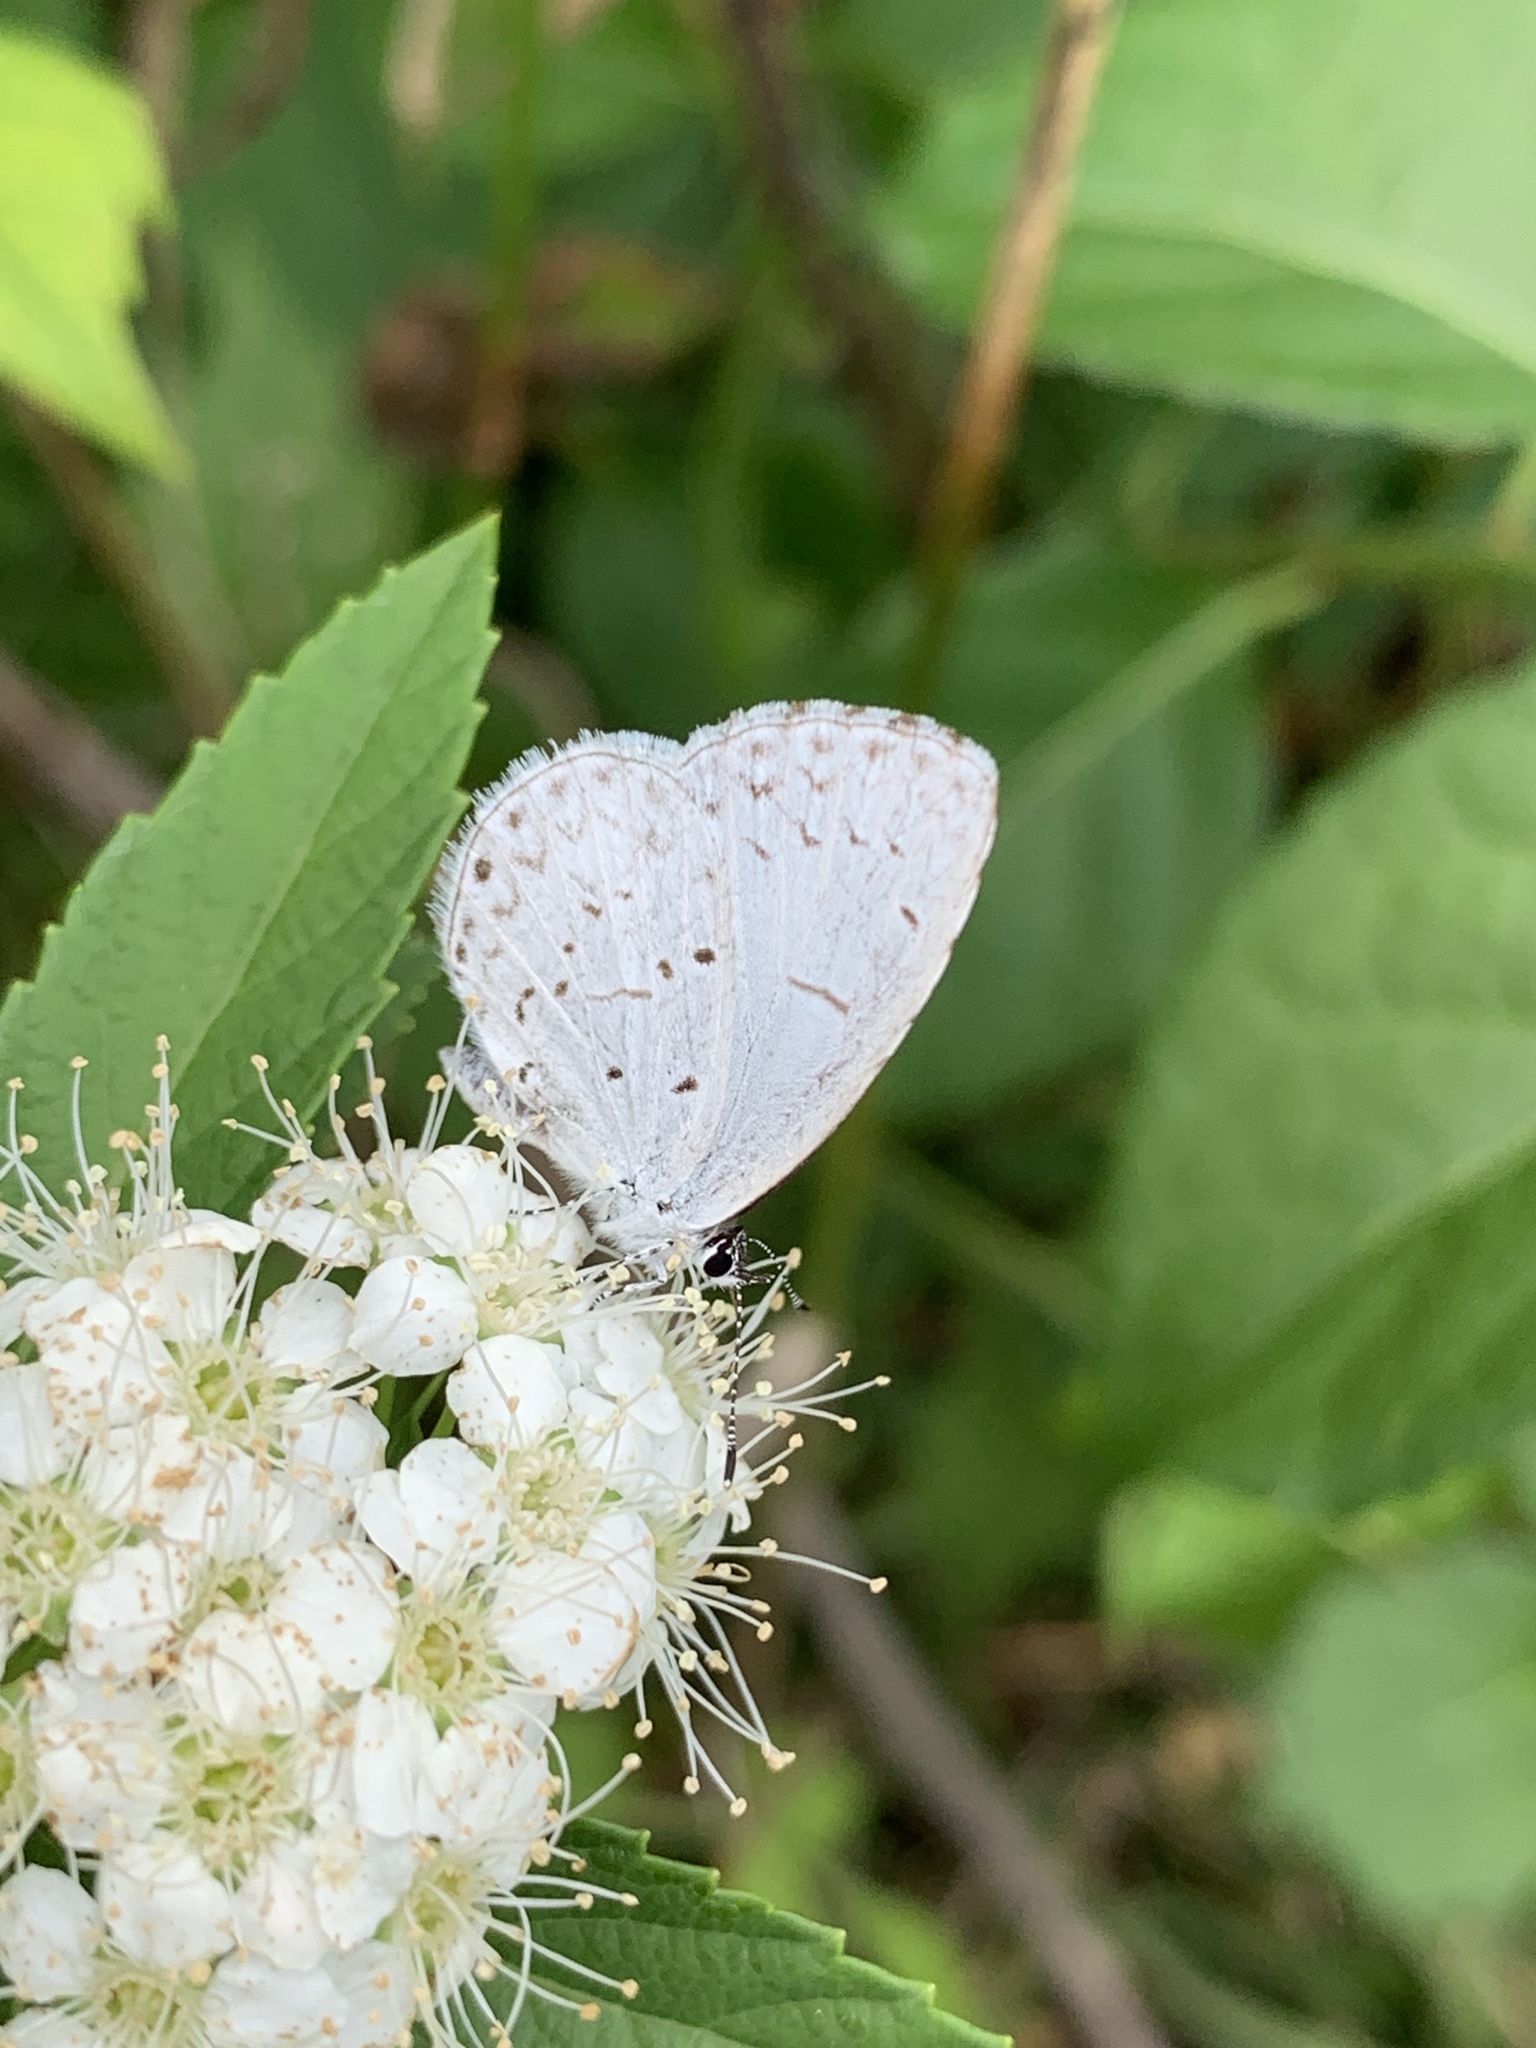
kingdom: Animalia
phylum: Arthropoda
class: Insecta
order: Lepidoptera
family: Lycaenidae
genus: Cyaniris
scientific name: Cyaniris neglecta
